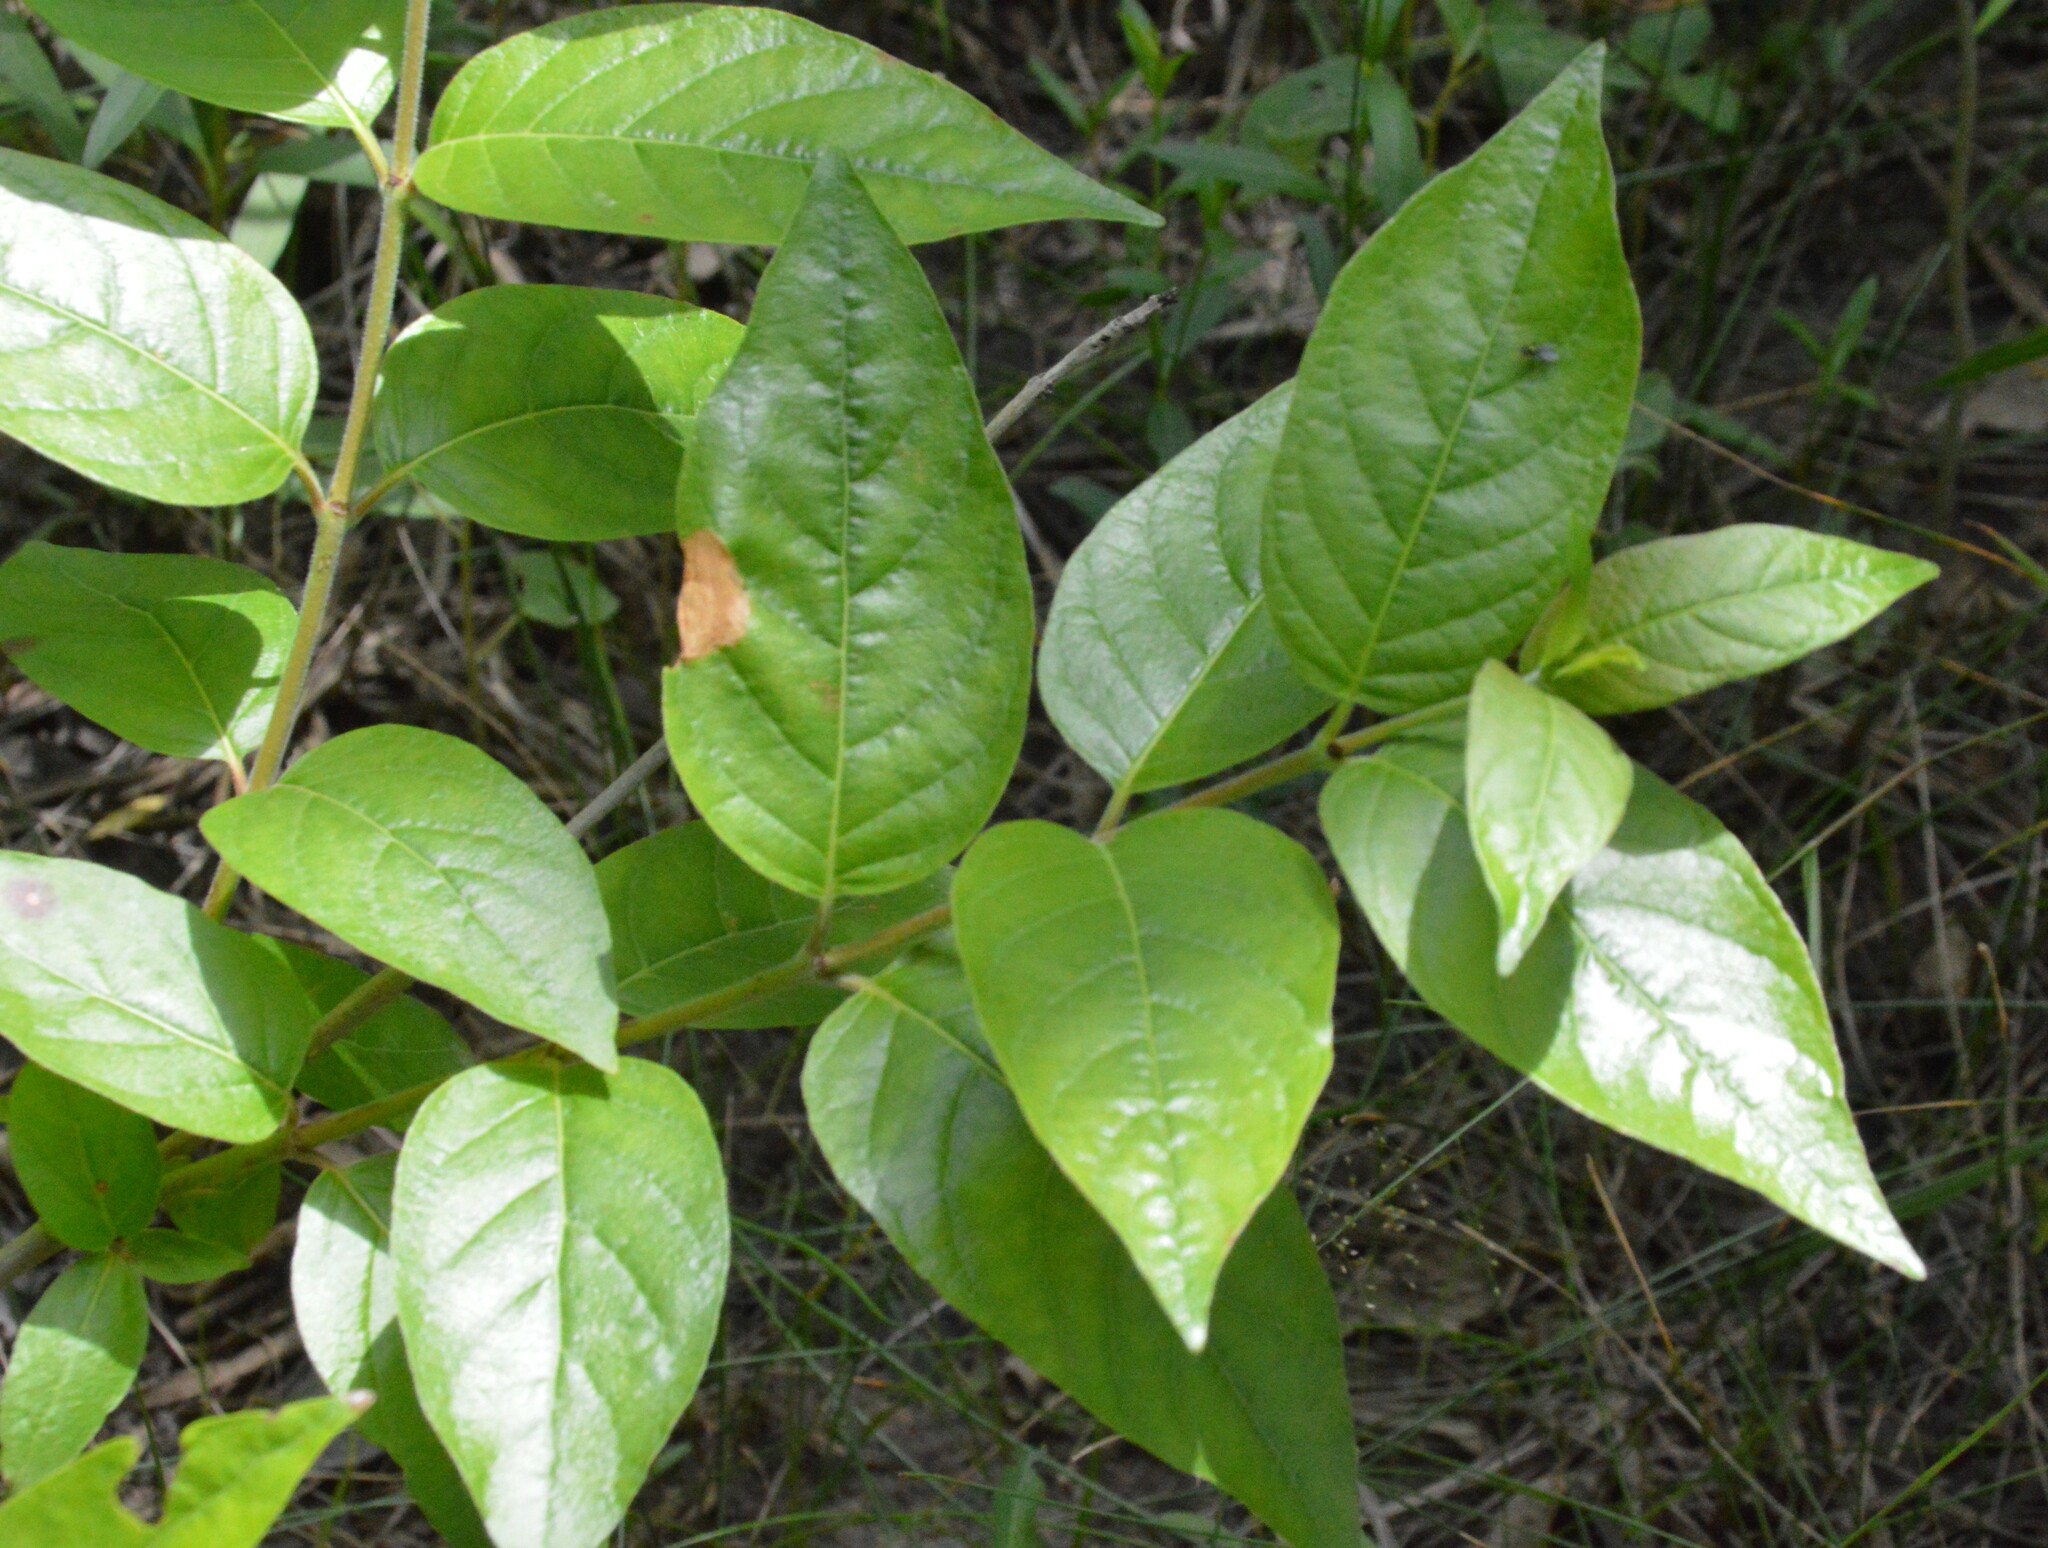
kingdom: Plantae
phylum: Tracheophyta
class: Magnoliopsida
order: Gentianales
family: Rubiaceae
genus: Cephalanthus
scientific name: Cephalanthus occidentalis
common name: Button-willow
